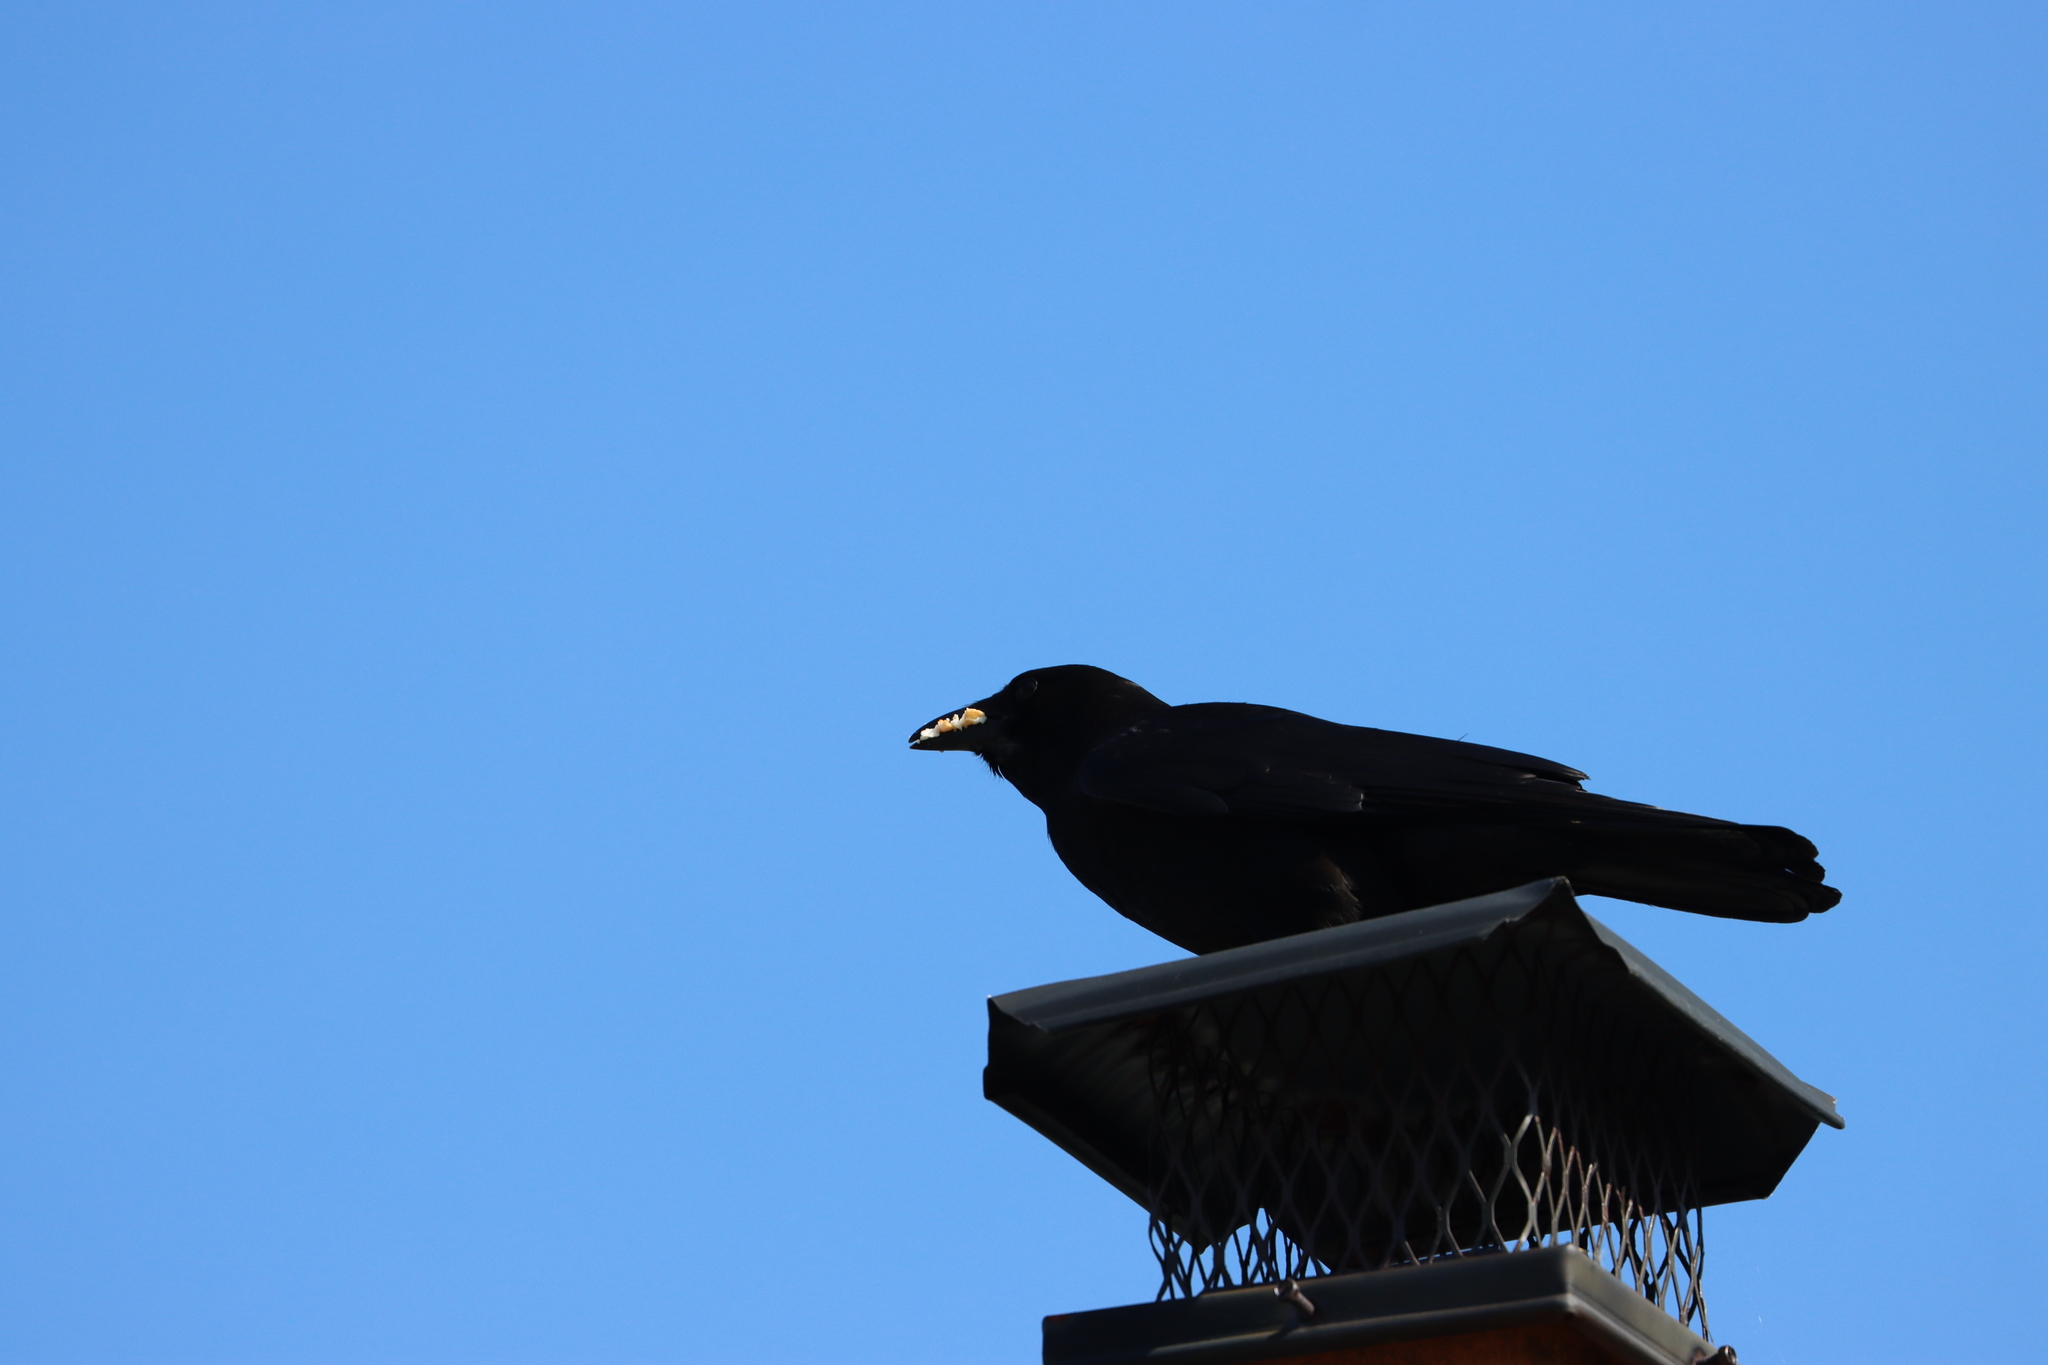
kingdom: Animalia
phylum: Chordata
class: Aves
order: Passeriformes
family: Corvidae
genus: Corvus
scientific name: Corvus brachyrhynchos
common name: American crow
